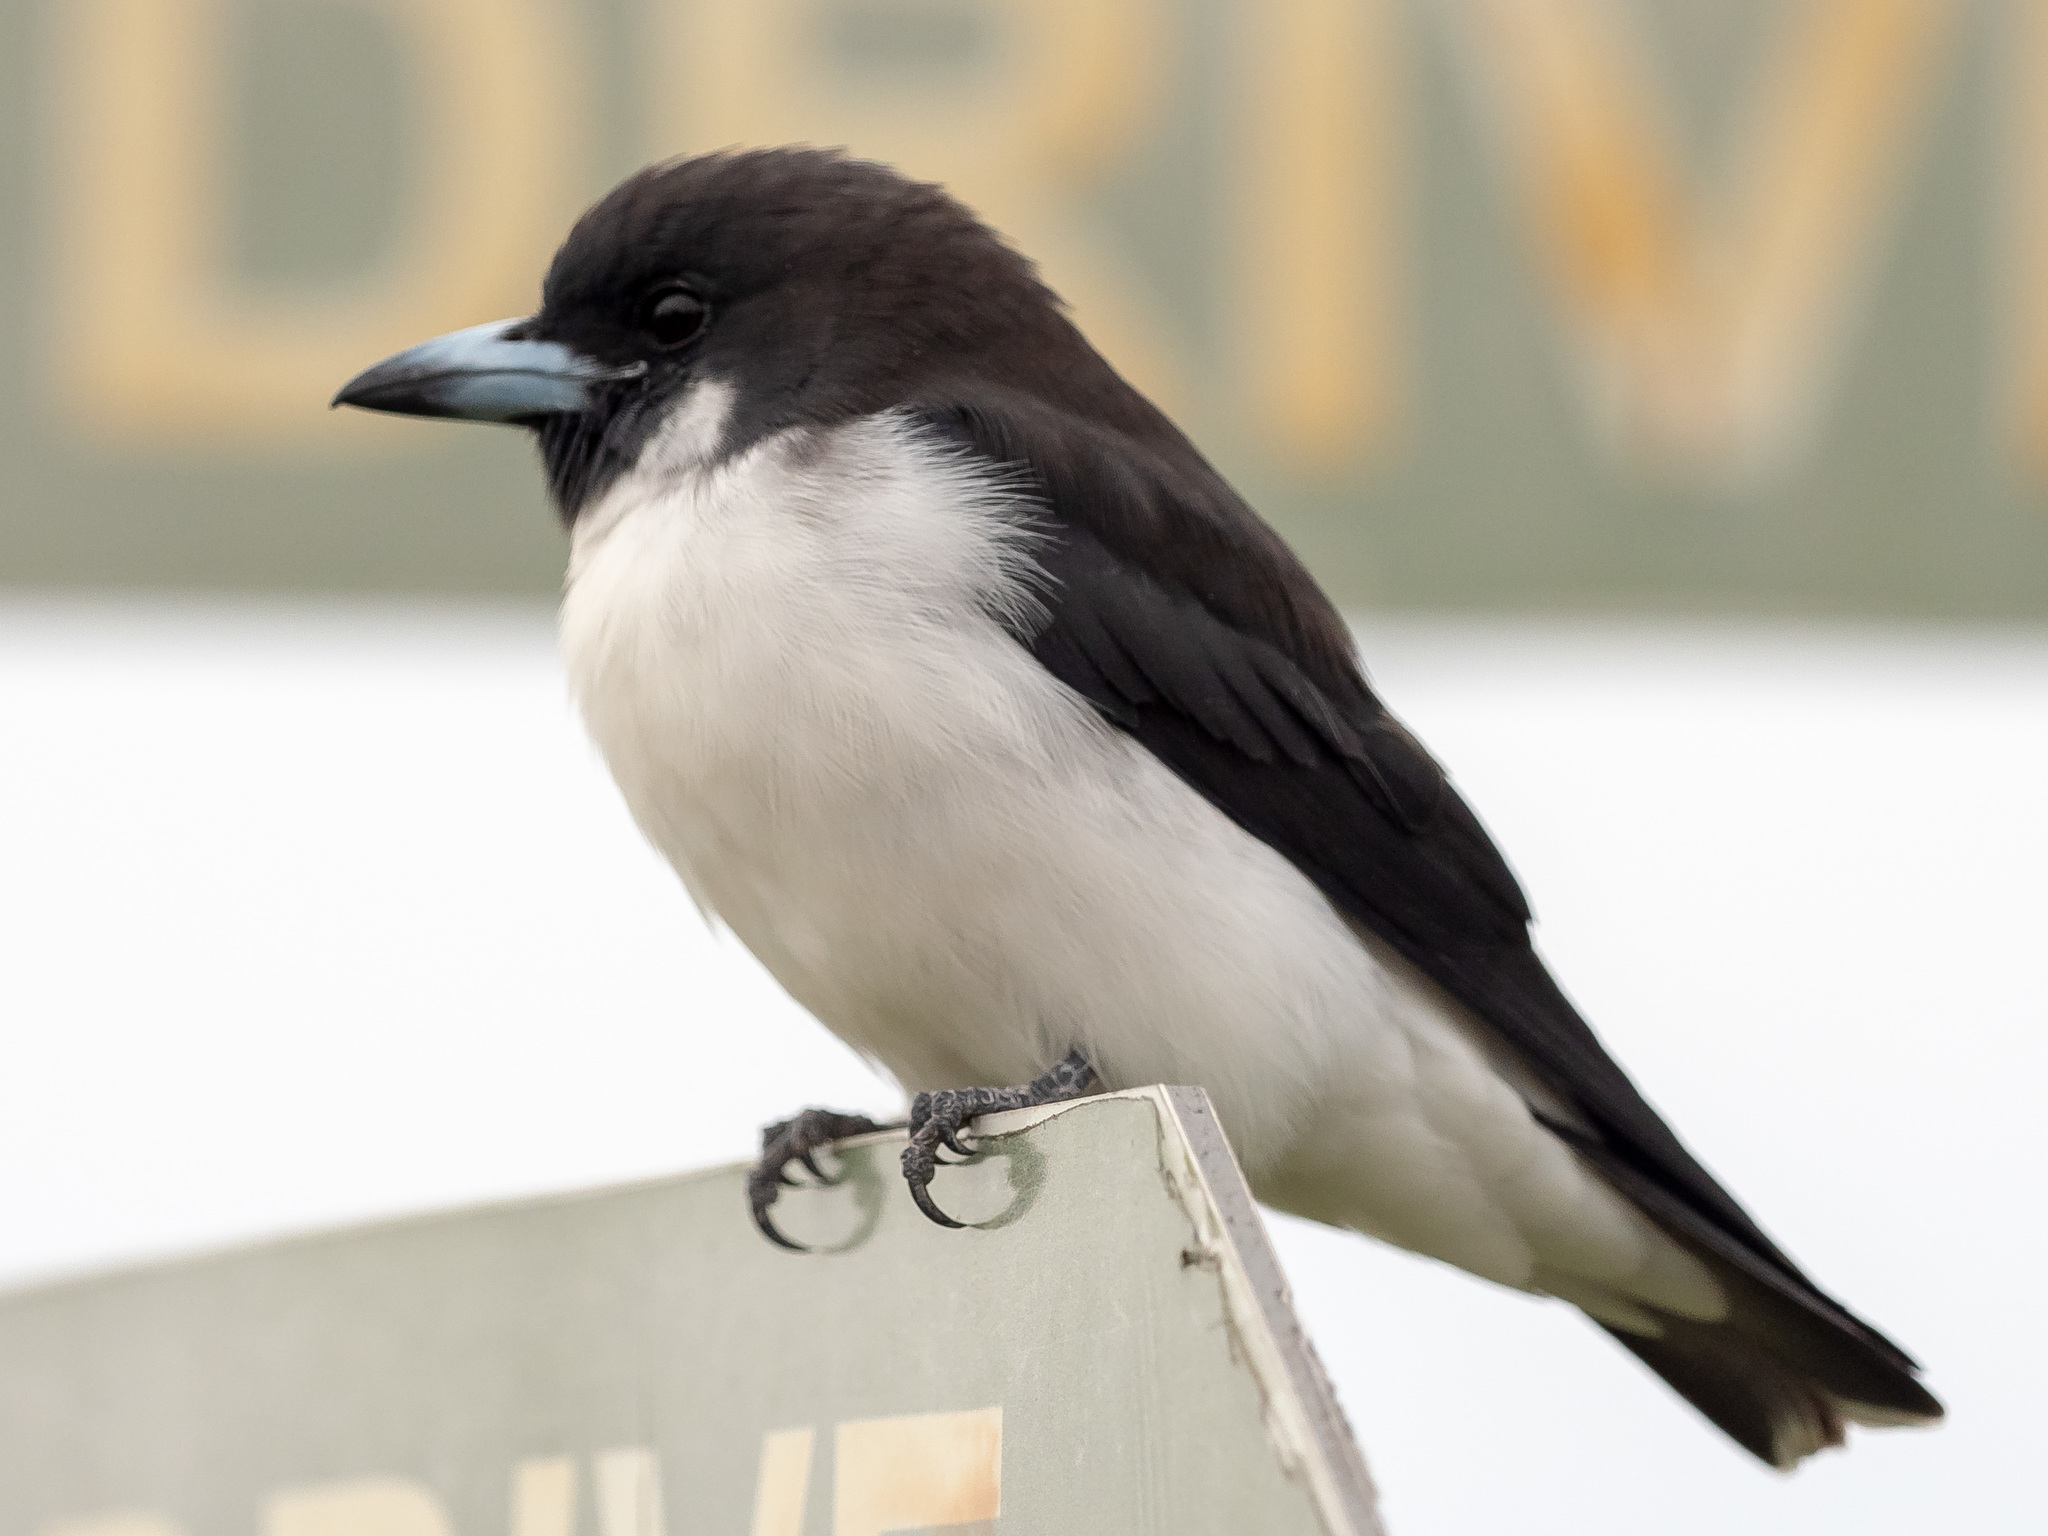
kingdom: Animalia
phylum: Chordata
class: Aves
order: Passeriformes
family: Artamidae
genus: Artamus
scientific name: Artamus mentalis
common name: Fiji woodswallow
